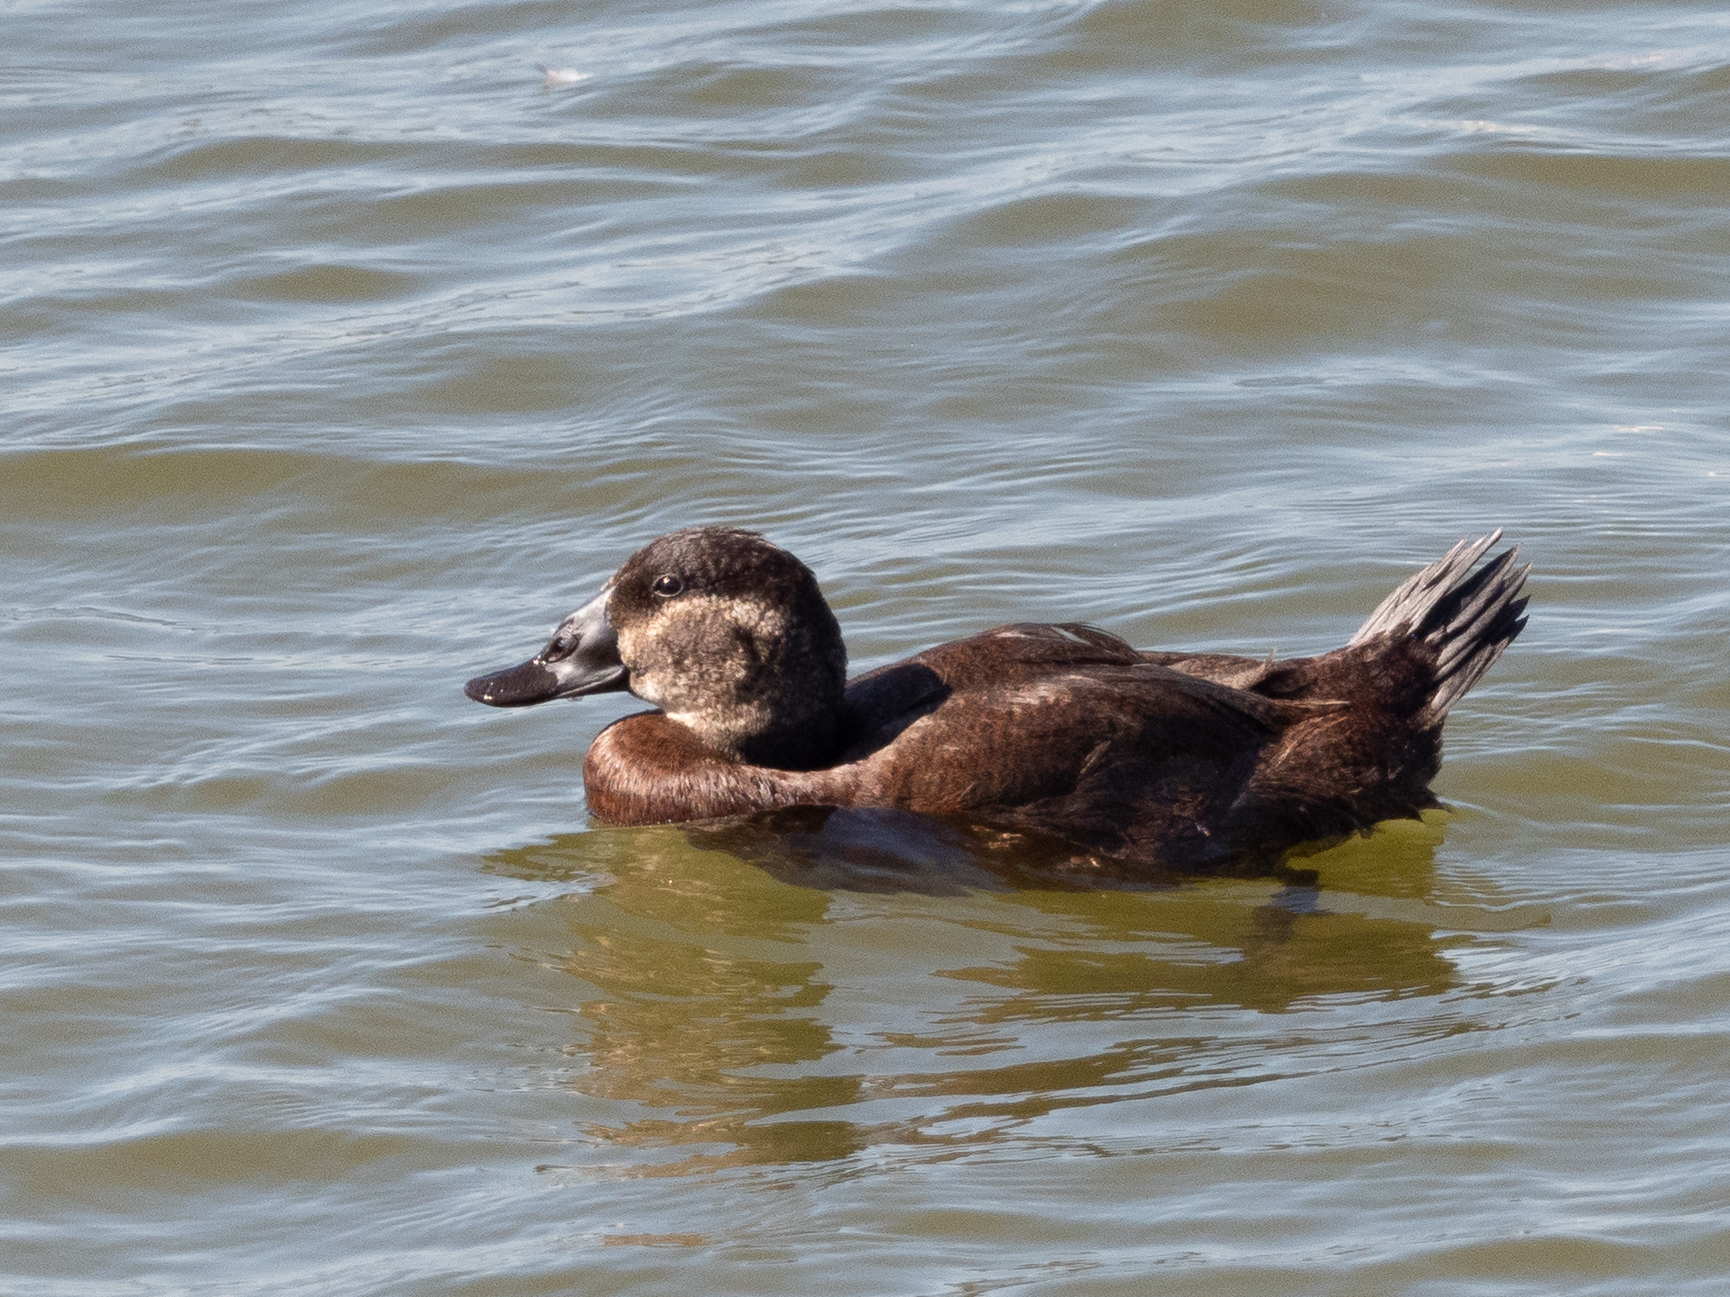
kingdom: Animalia
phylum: Chordata
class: Aves
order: Anseriformes
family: Anatidae
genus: Oxyura
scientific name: Oxyura leucocephala
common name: White-headed duck
